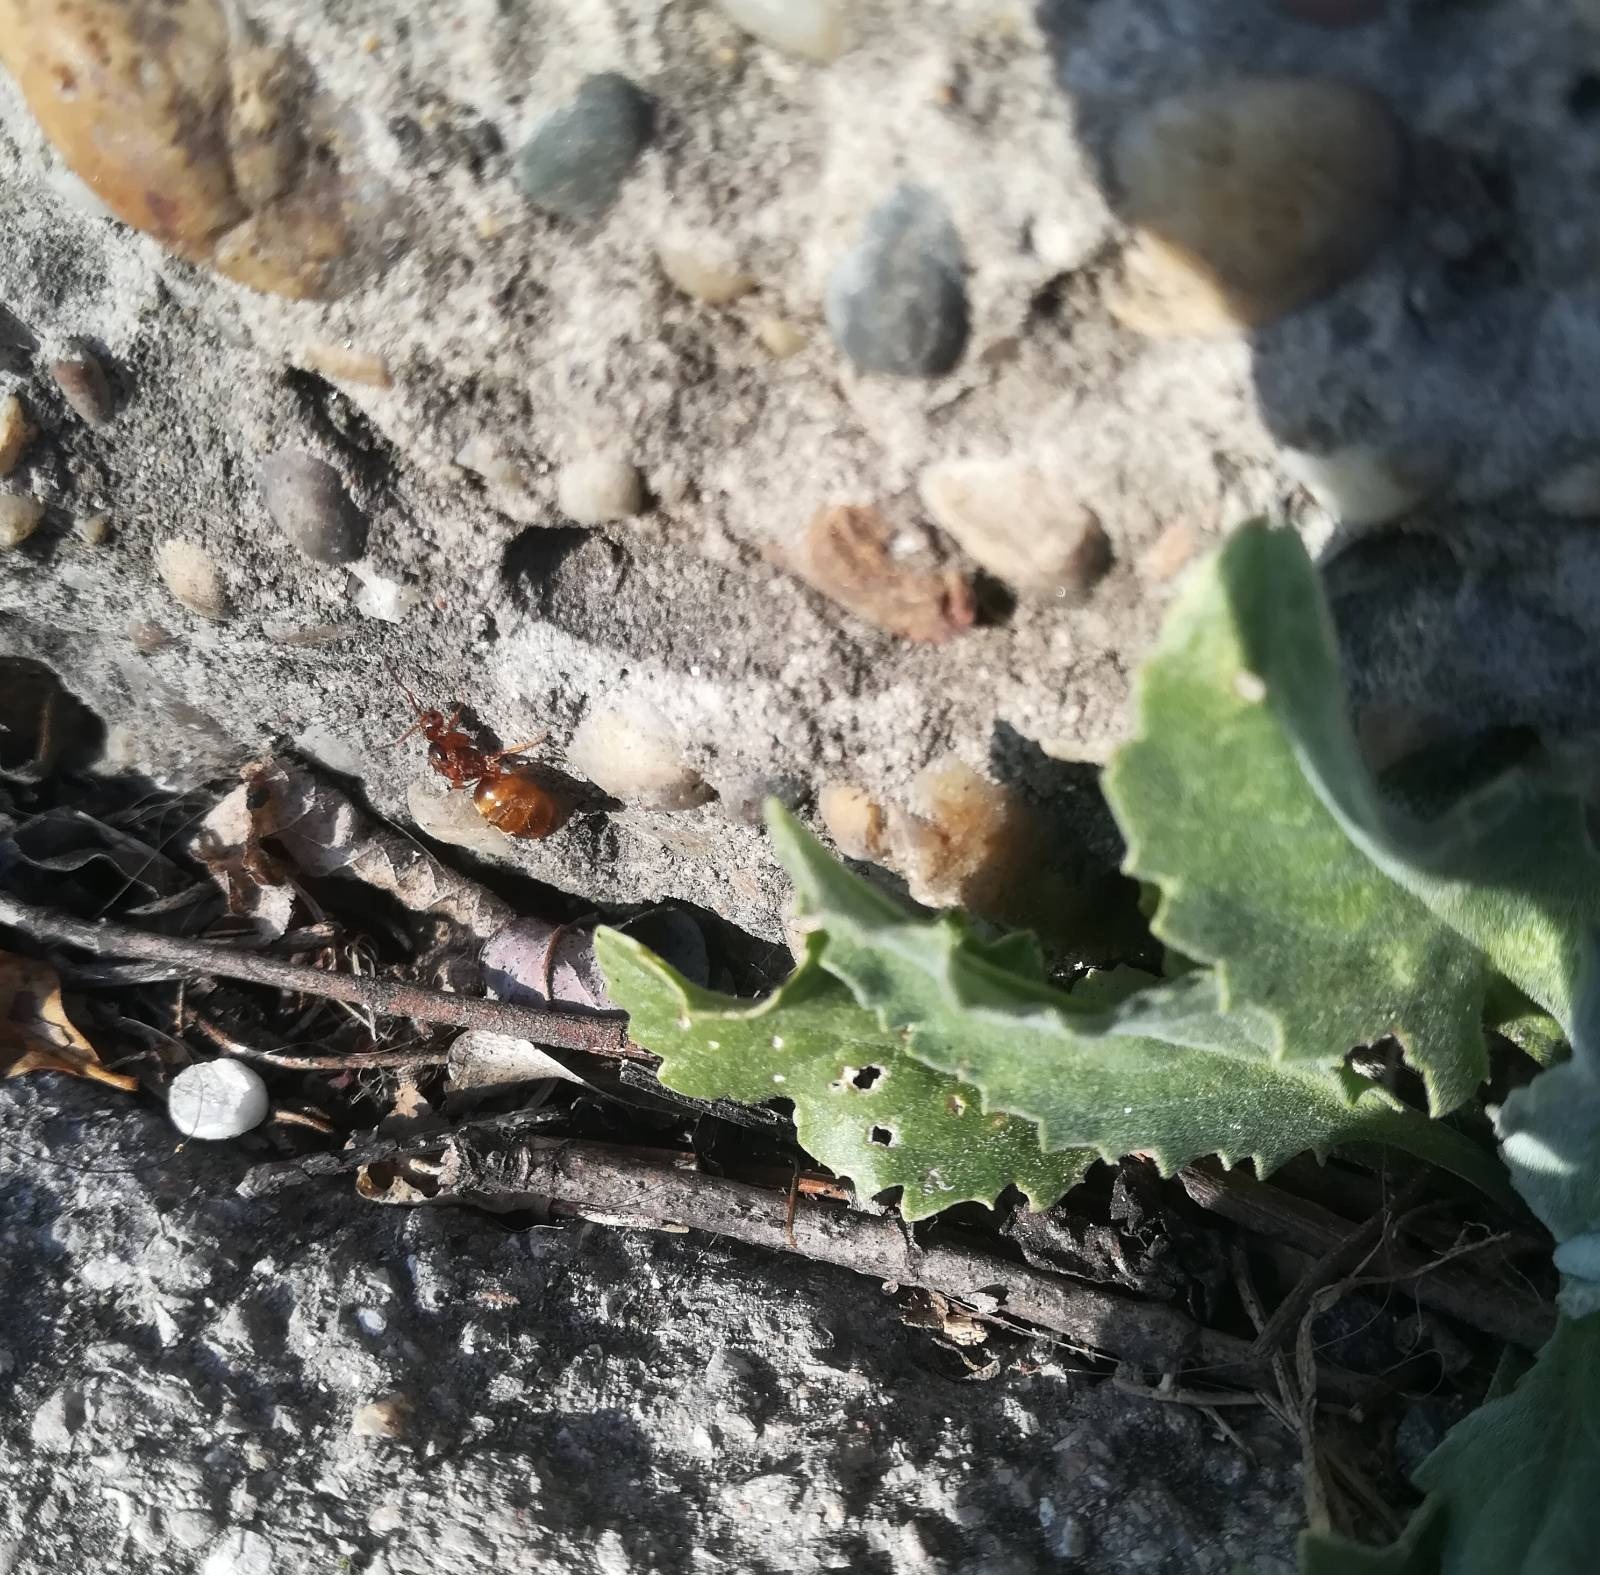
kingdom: Animalia
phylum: Arthropoda
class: Insecta
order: Hymenoptera
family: Formicidae
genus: Prenolepis
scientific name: Prenolepis nitens
